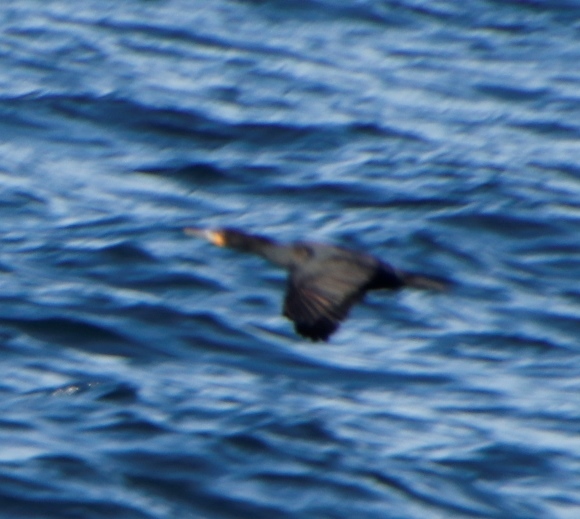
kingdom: Animalia
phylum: Chordata
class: Aves
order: Suliformes
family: Phalacrocoracidae
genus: Phalacrocorax
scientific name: Phalacrocorax capensis
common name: Cape cormorant
